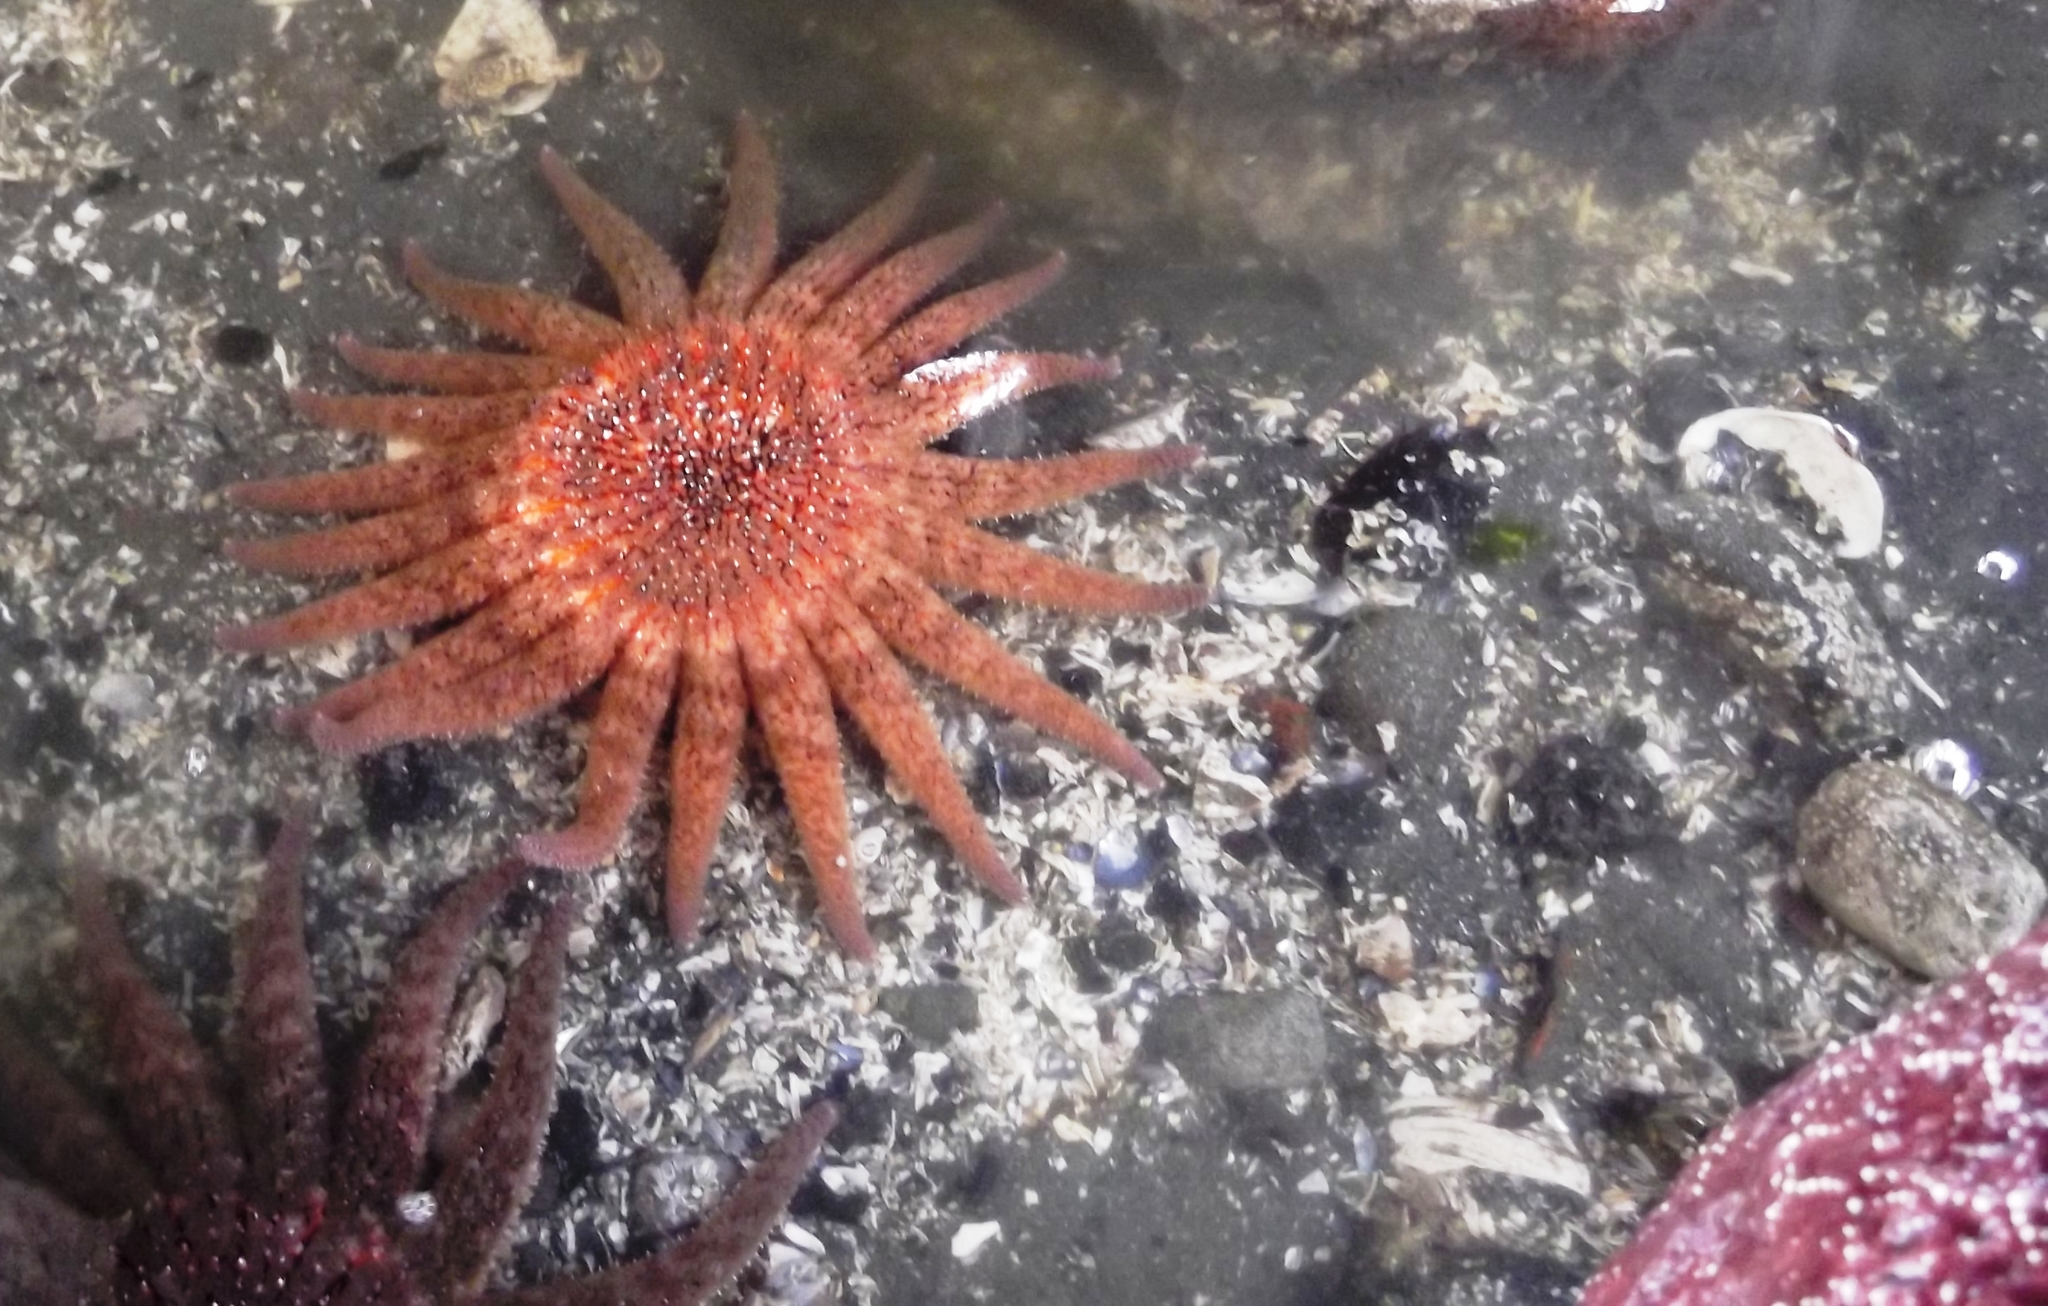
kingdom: Animalia
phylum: Echinodermata
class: Asteroidea
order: Forcipulatida
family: Asteriidae
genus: Pycnopodia
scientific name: Pycnopodia helianthoides
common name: Rag mop
